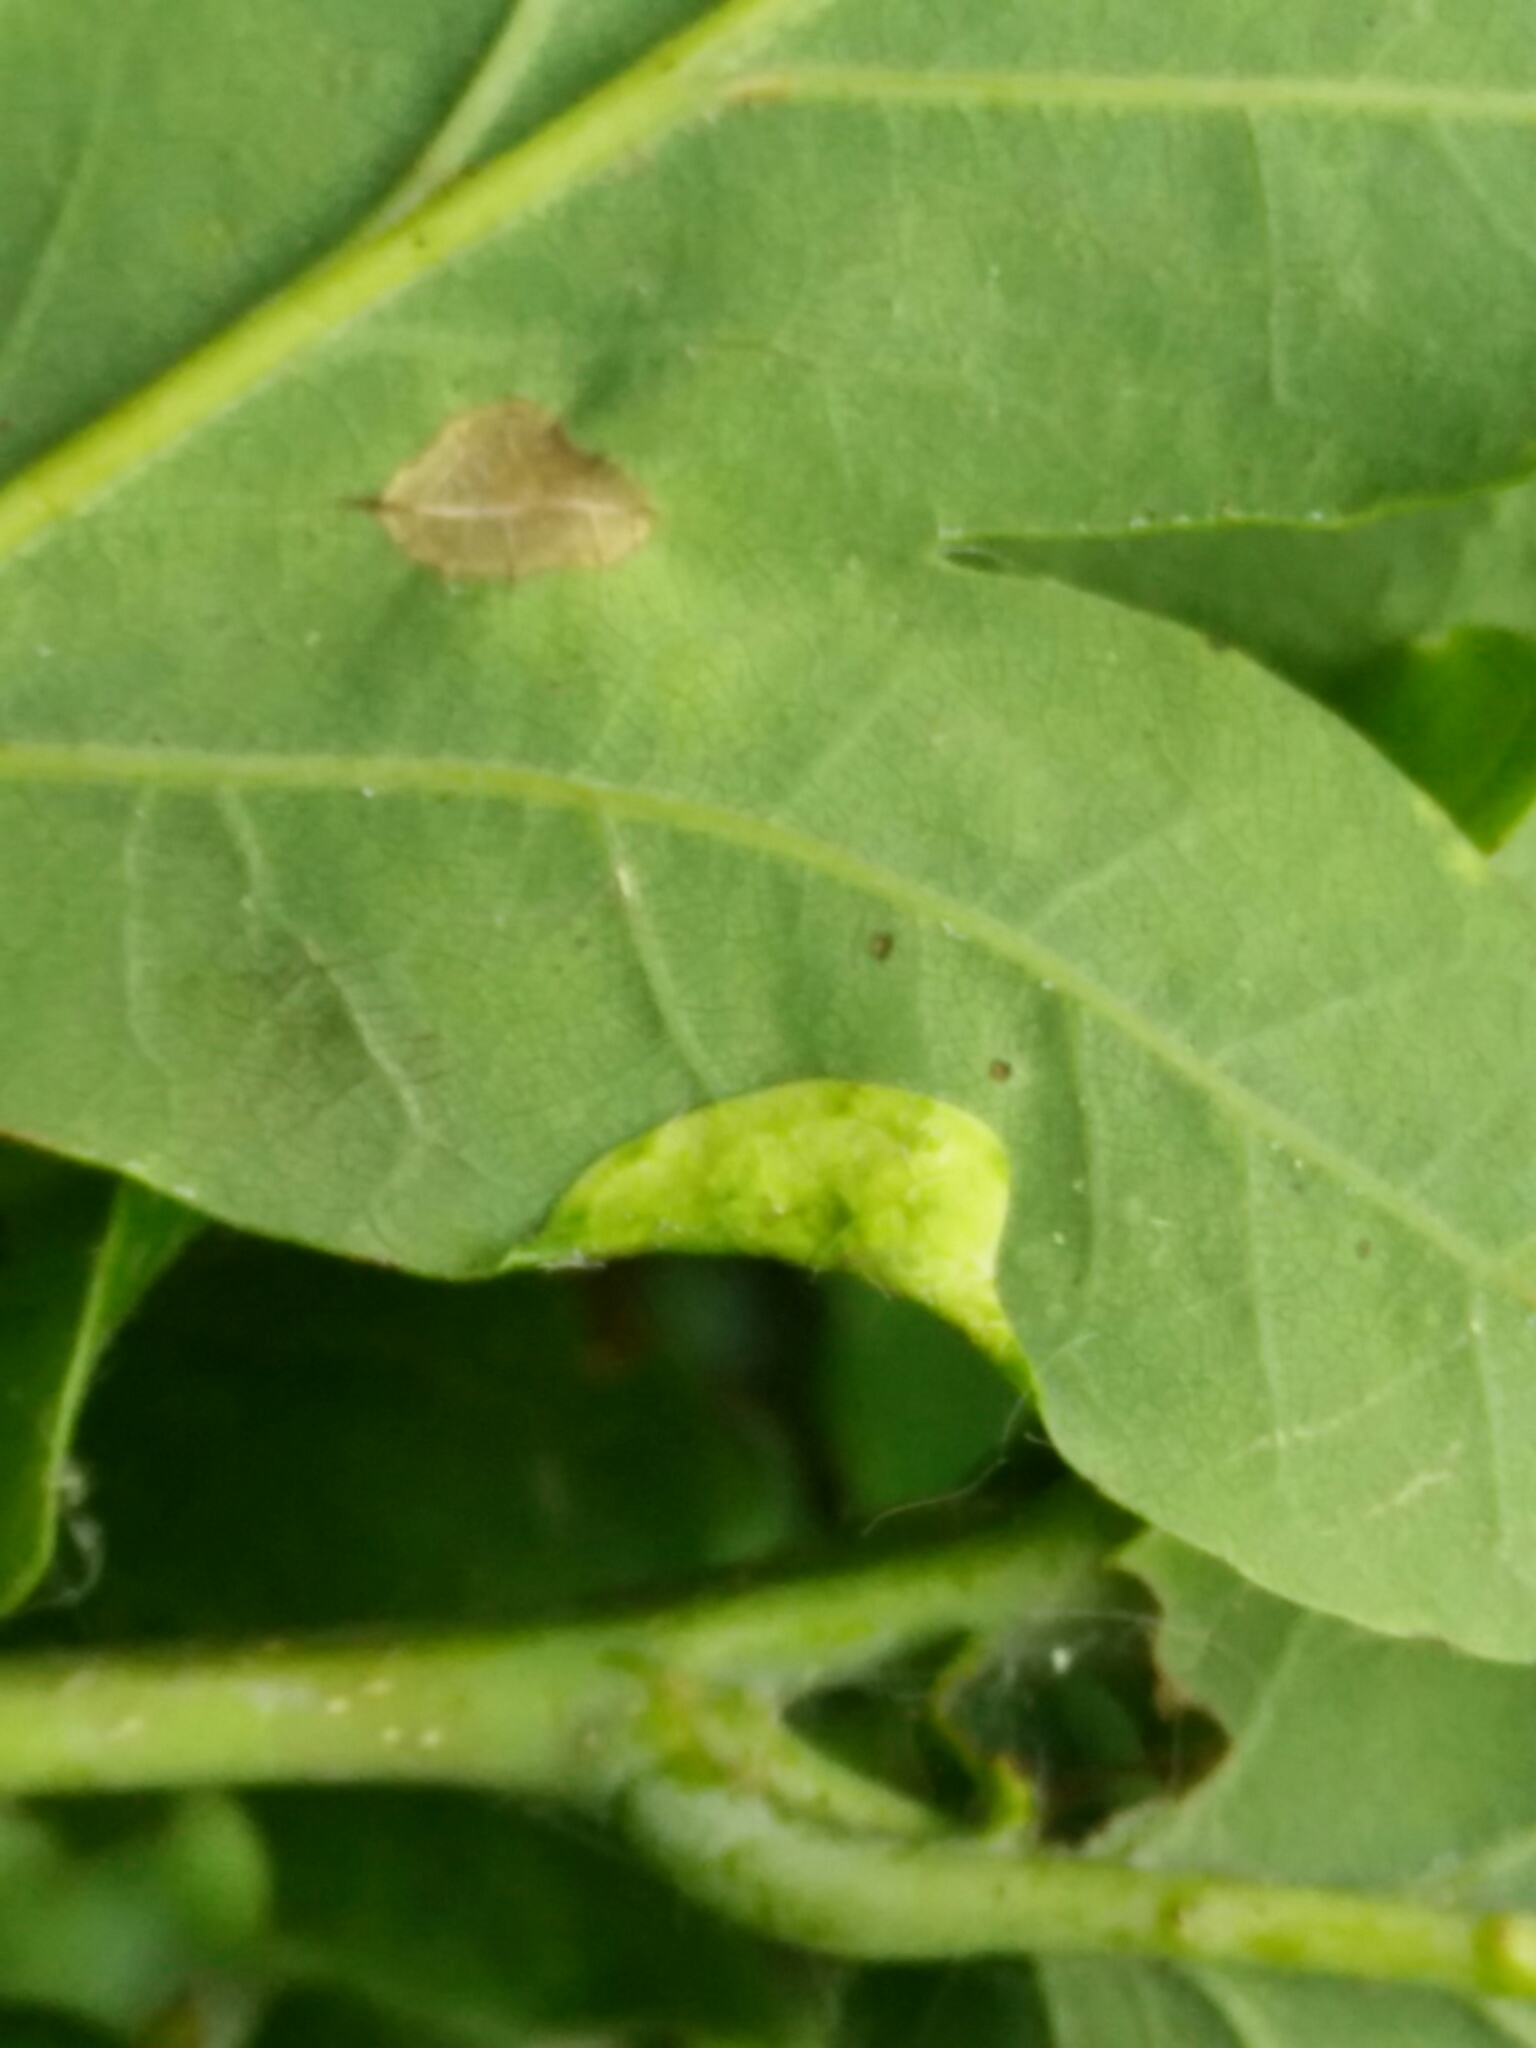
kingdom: Animalia
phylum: Arthropoda
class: Insecta
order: Diptera
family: Cecidomyiidae
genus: Macrodiplosis
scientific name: Macrodiplosis pustularis
